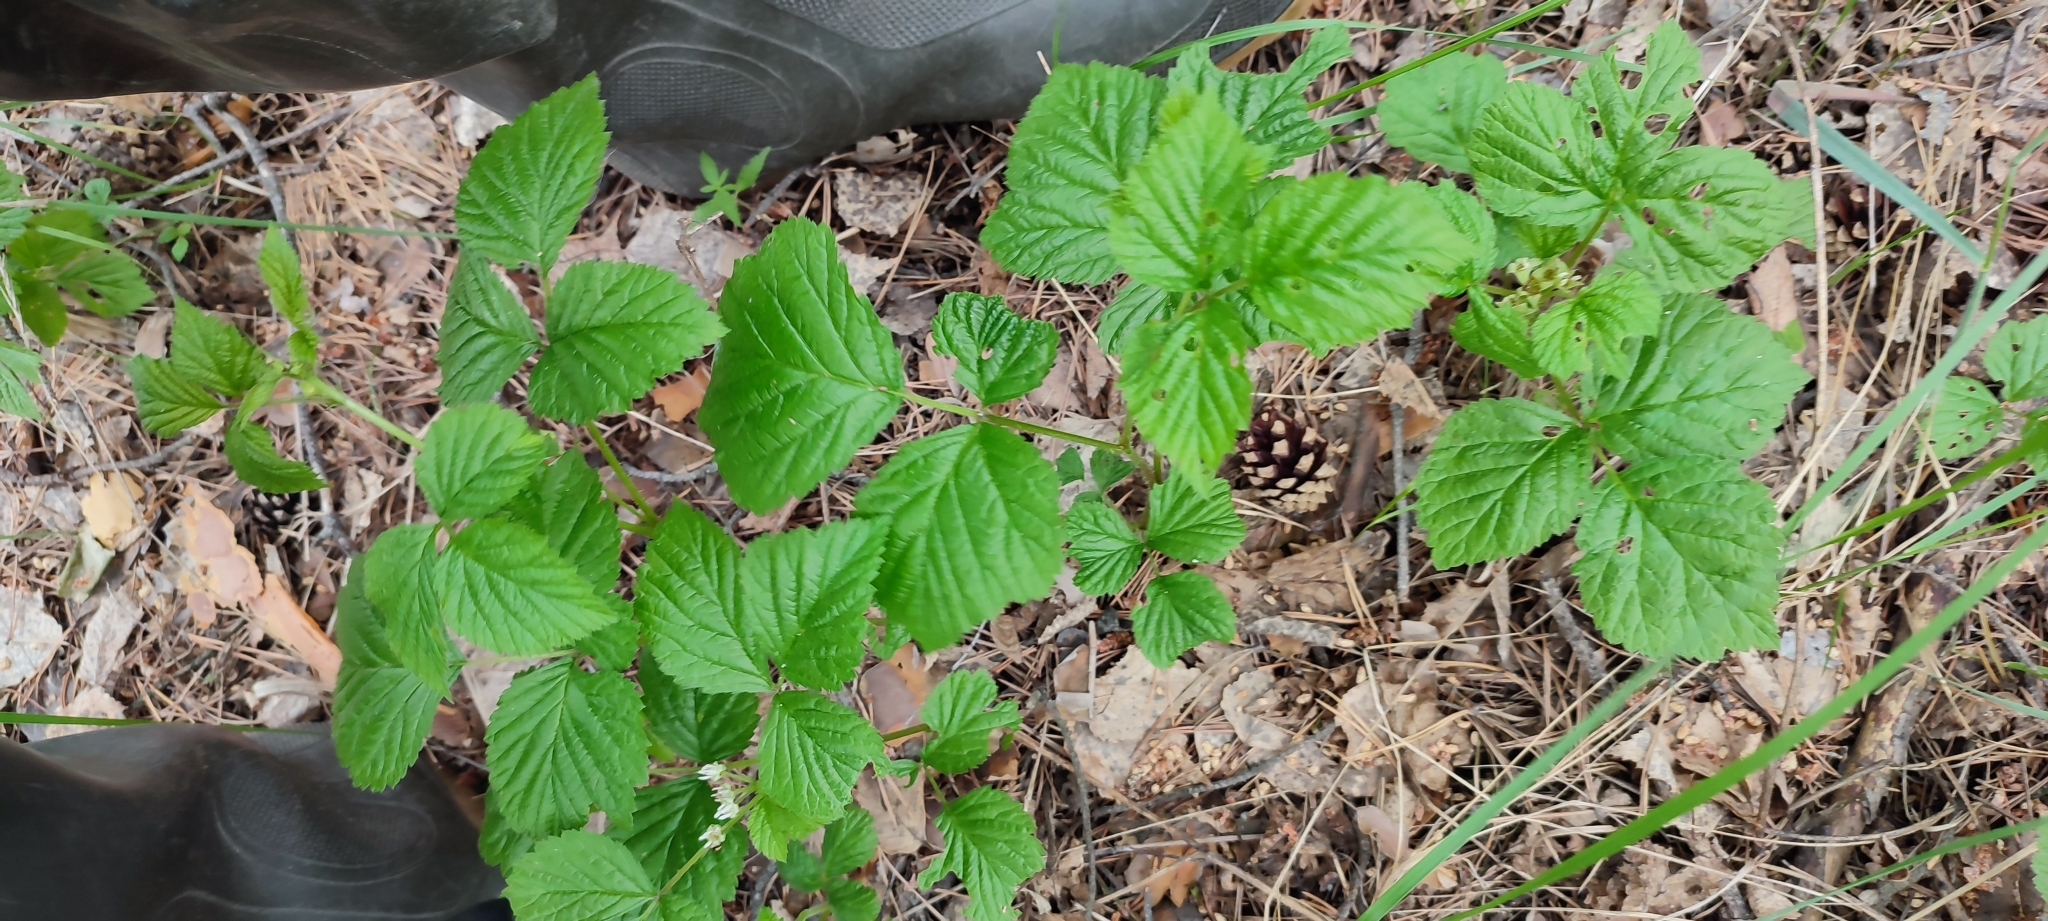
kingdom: Plantae
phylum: Tracheophyta
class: Magnoliopsida
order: Rosales
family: Rosaceae
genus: Rubus
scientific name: Rubus saxatilis
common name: Stone bramble
